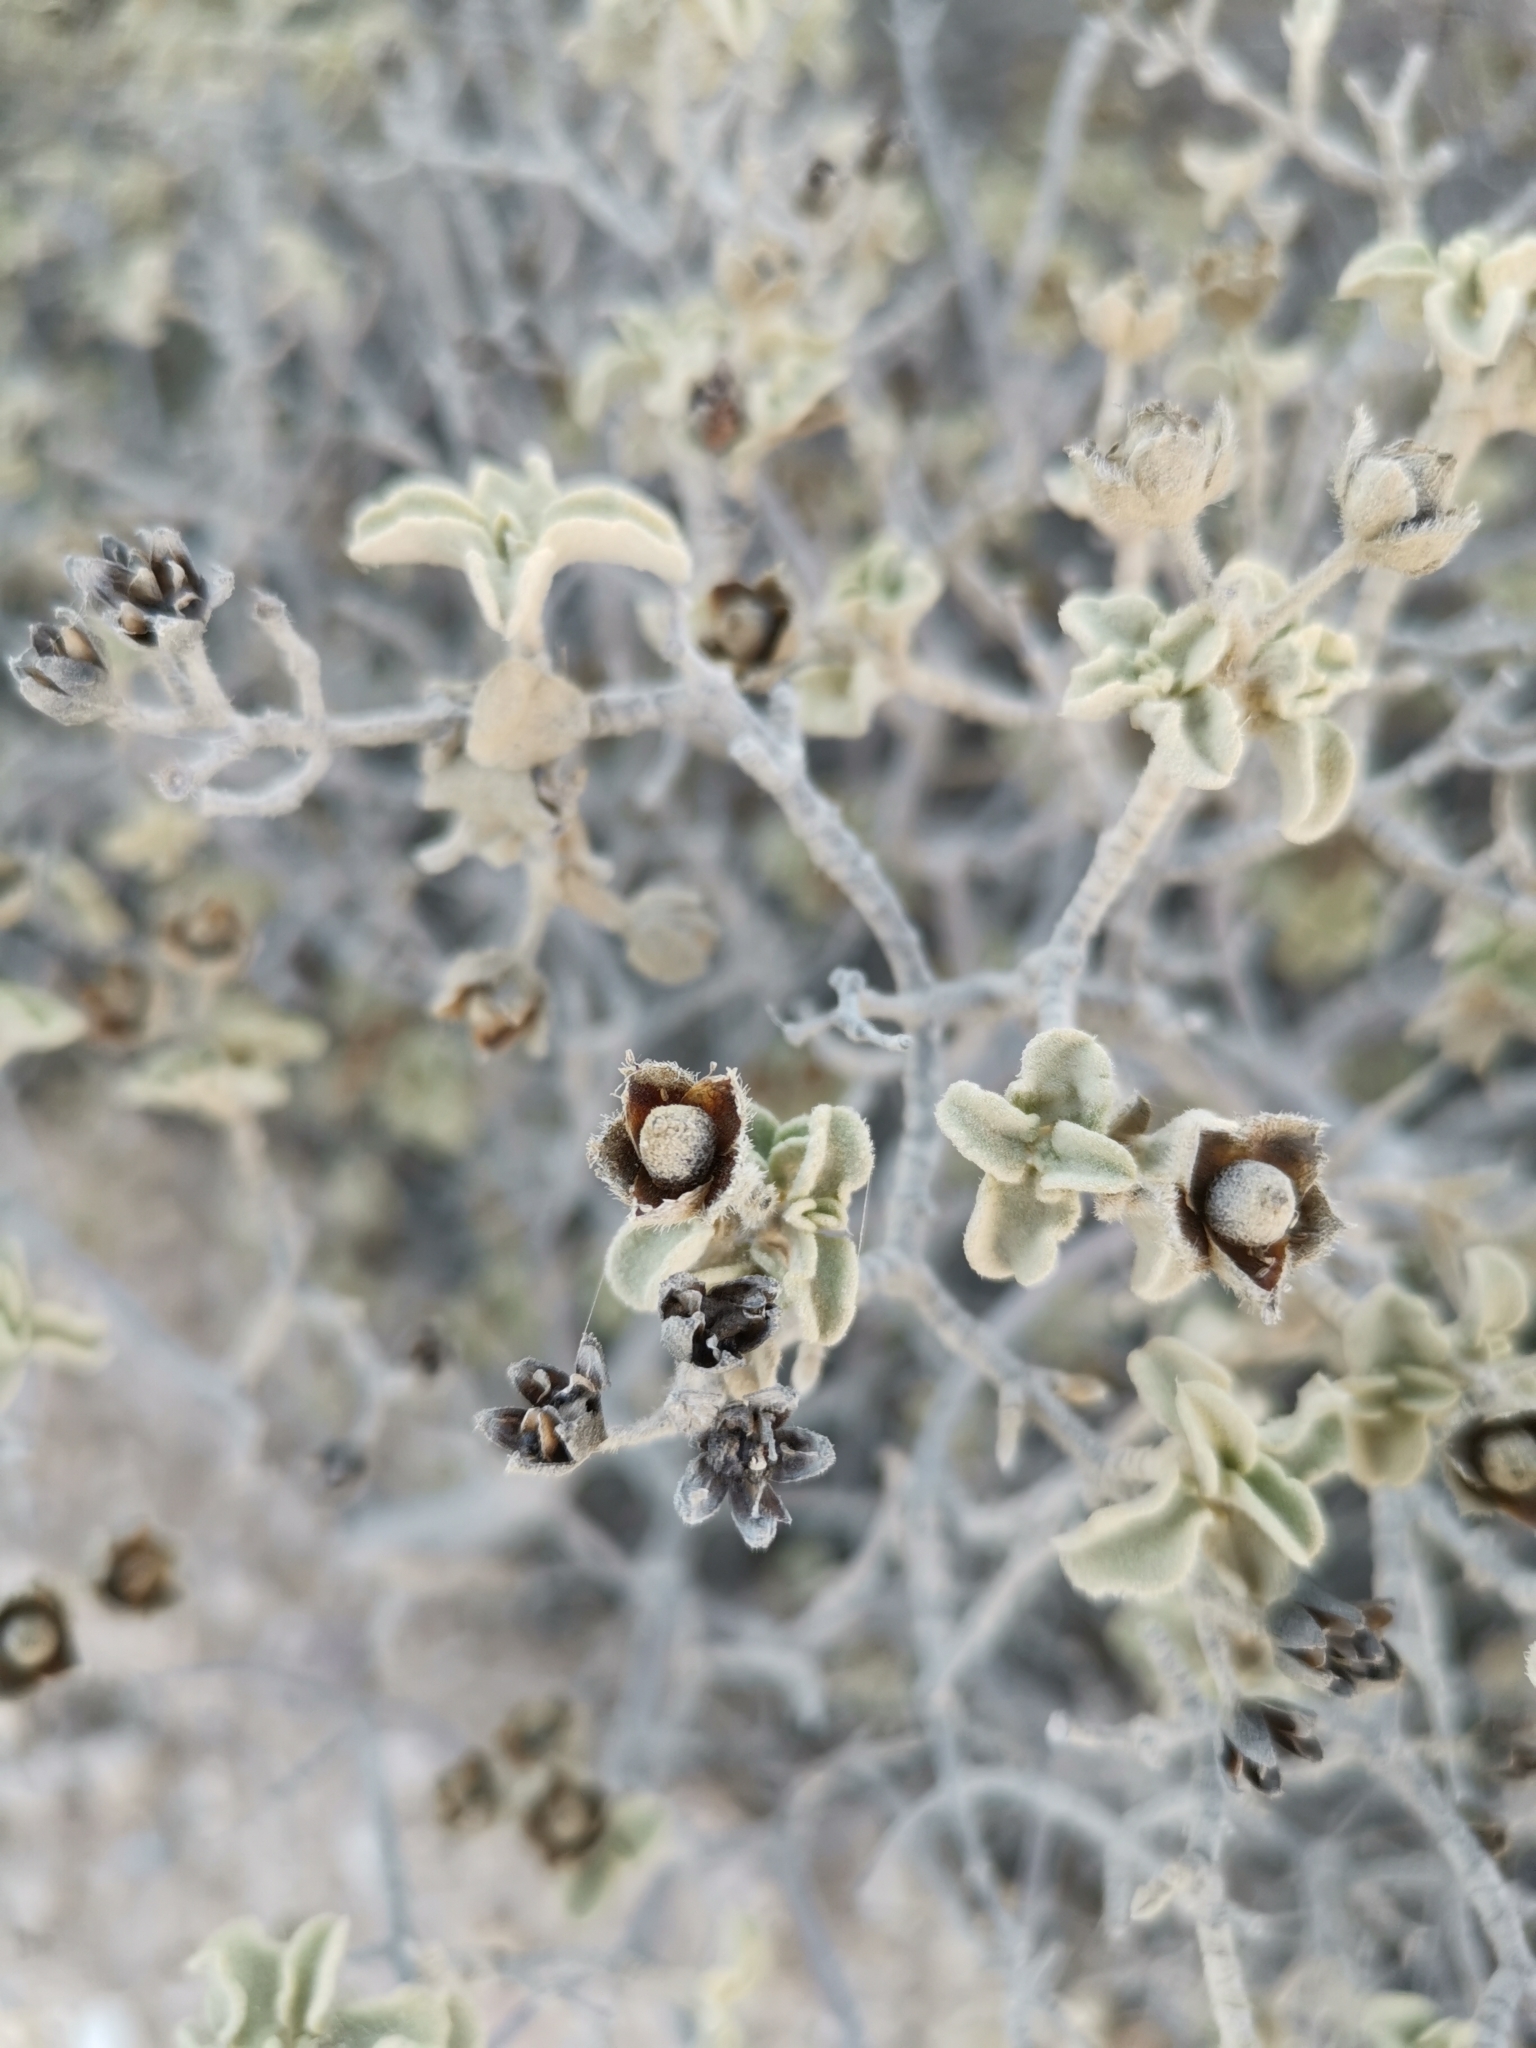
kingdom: Plantae
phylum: Tracheophyta
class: Magnoliopsida
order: Malvales
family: Cistaceae
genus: Cistus
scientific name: Cistus parviflorus
